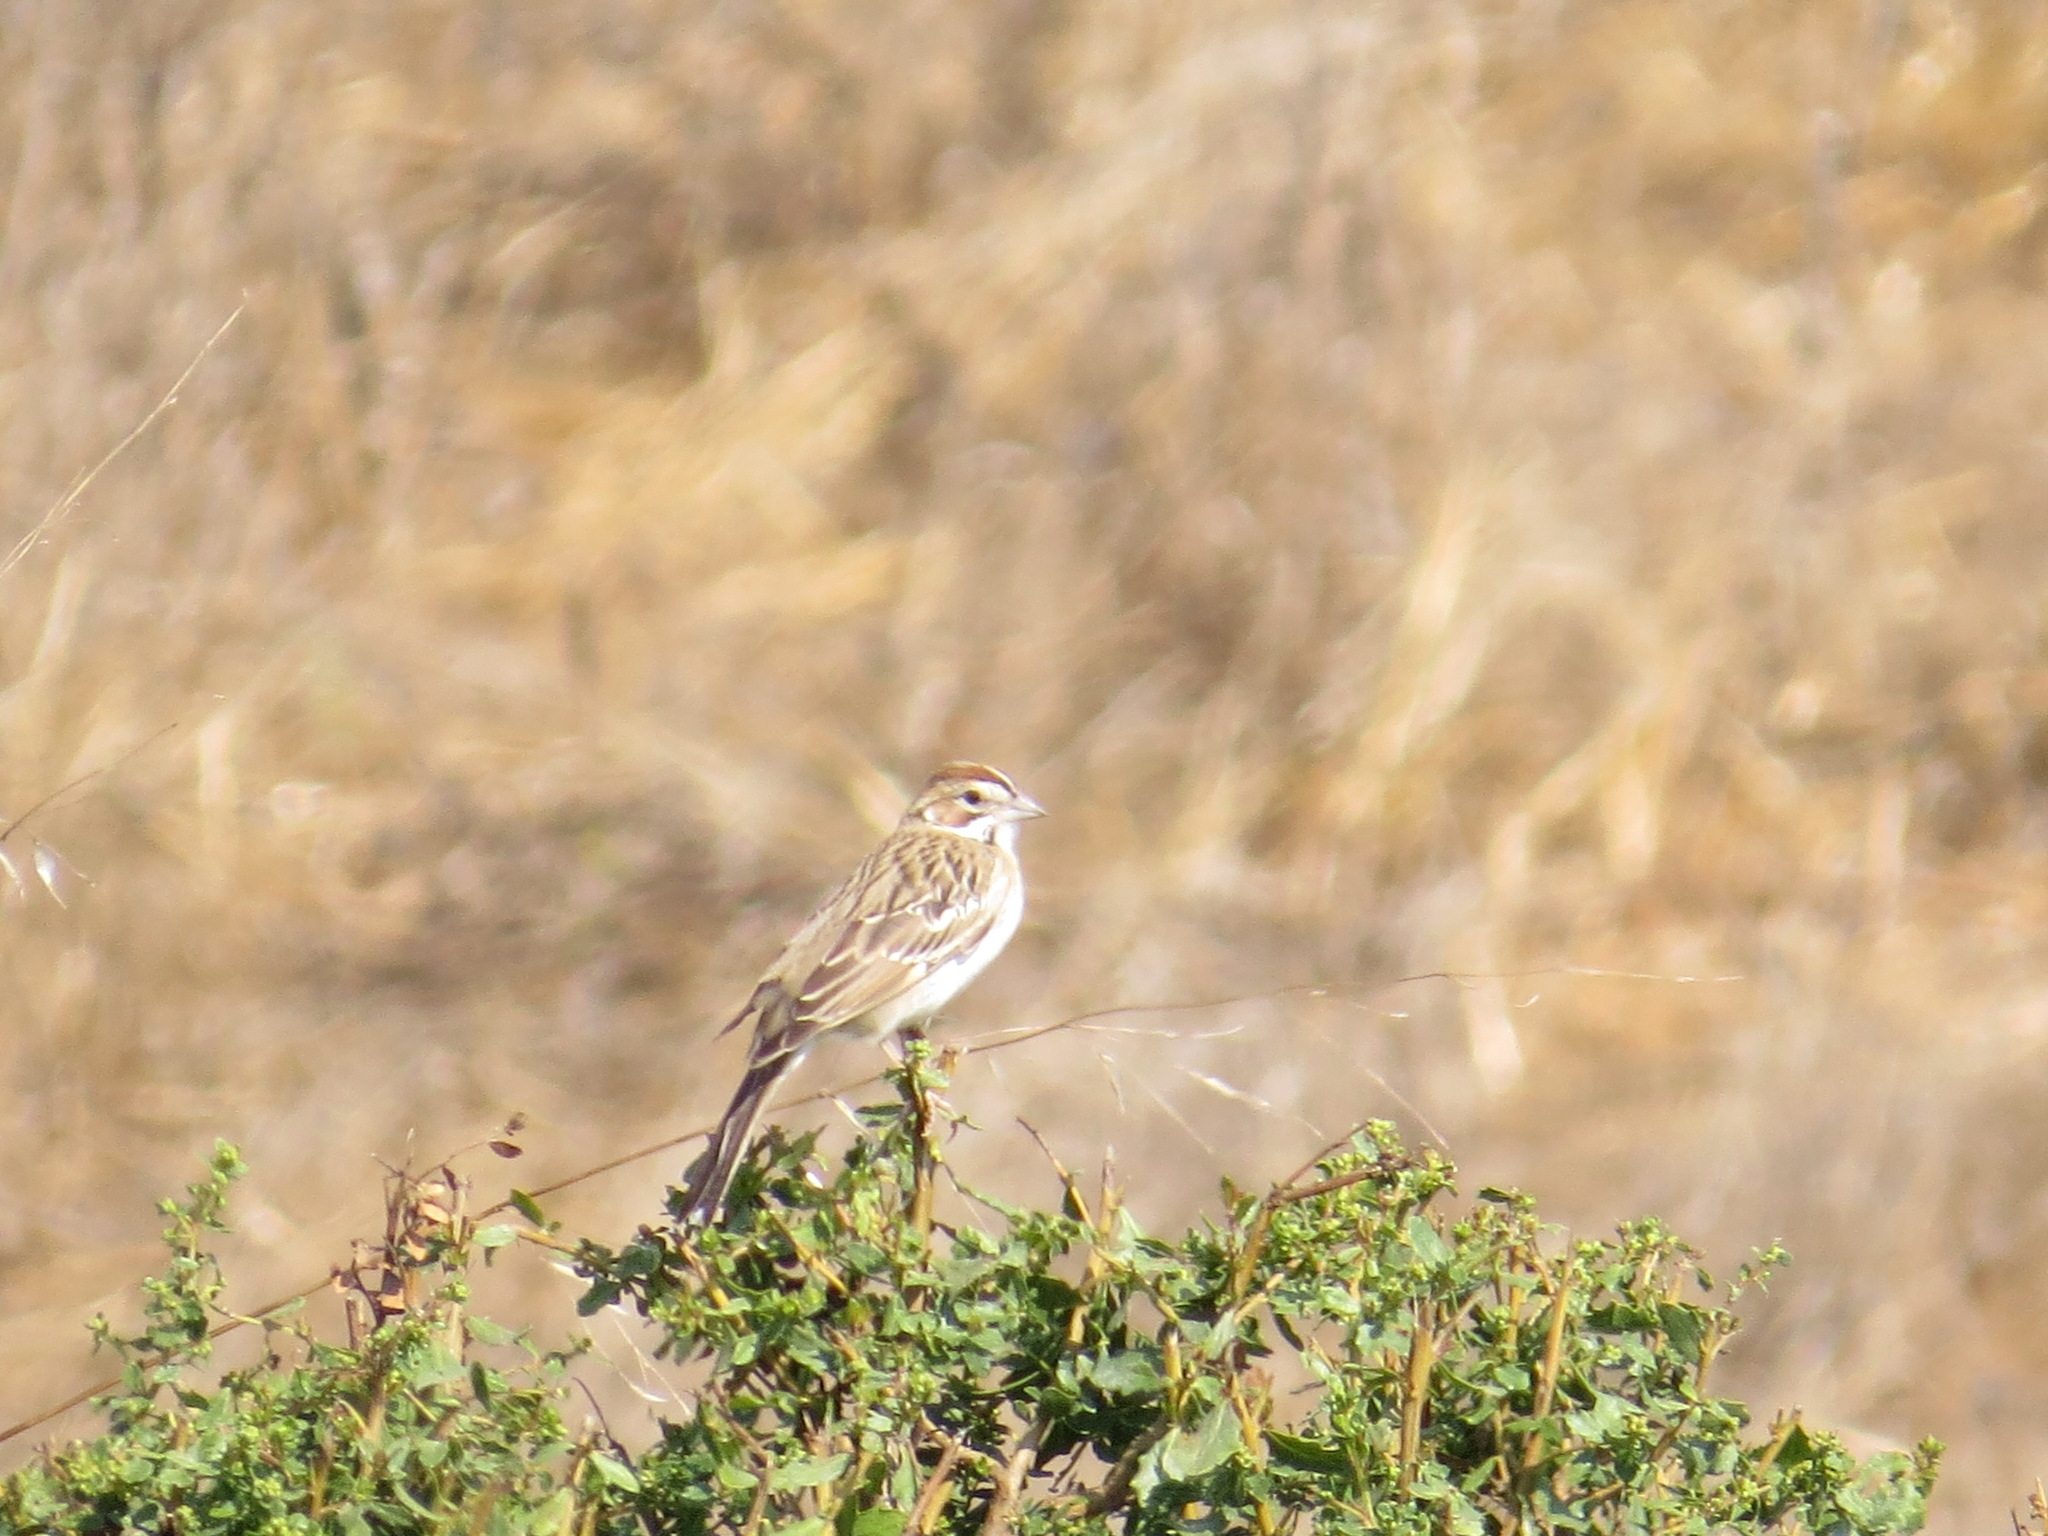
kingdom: Animalia
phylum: Chordata
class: Aves
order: Passeriformes
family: Passerellidae
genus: Chondestes
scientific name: Chondestes grammacus
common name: Lark sparrow
